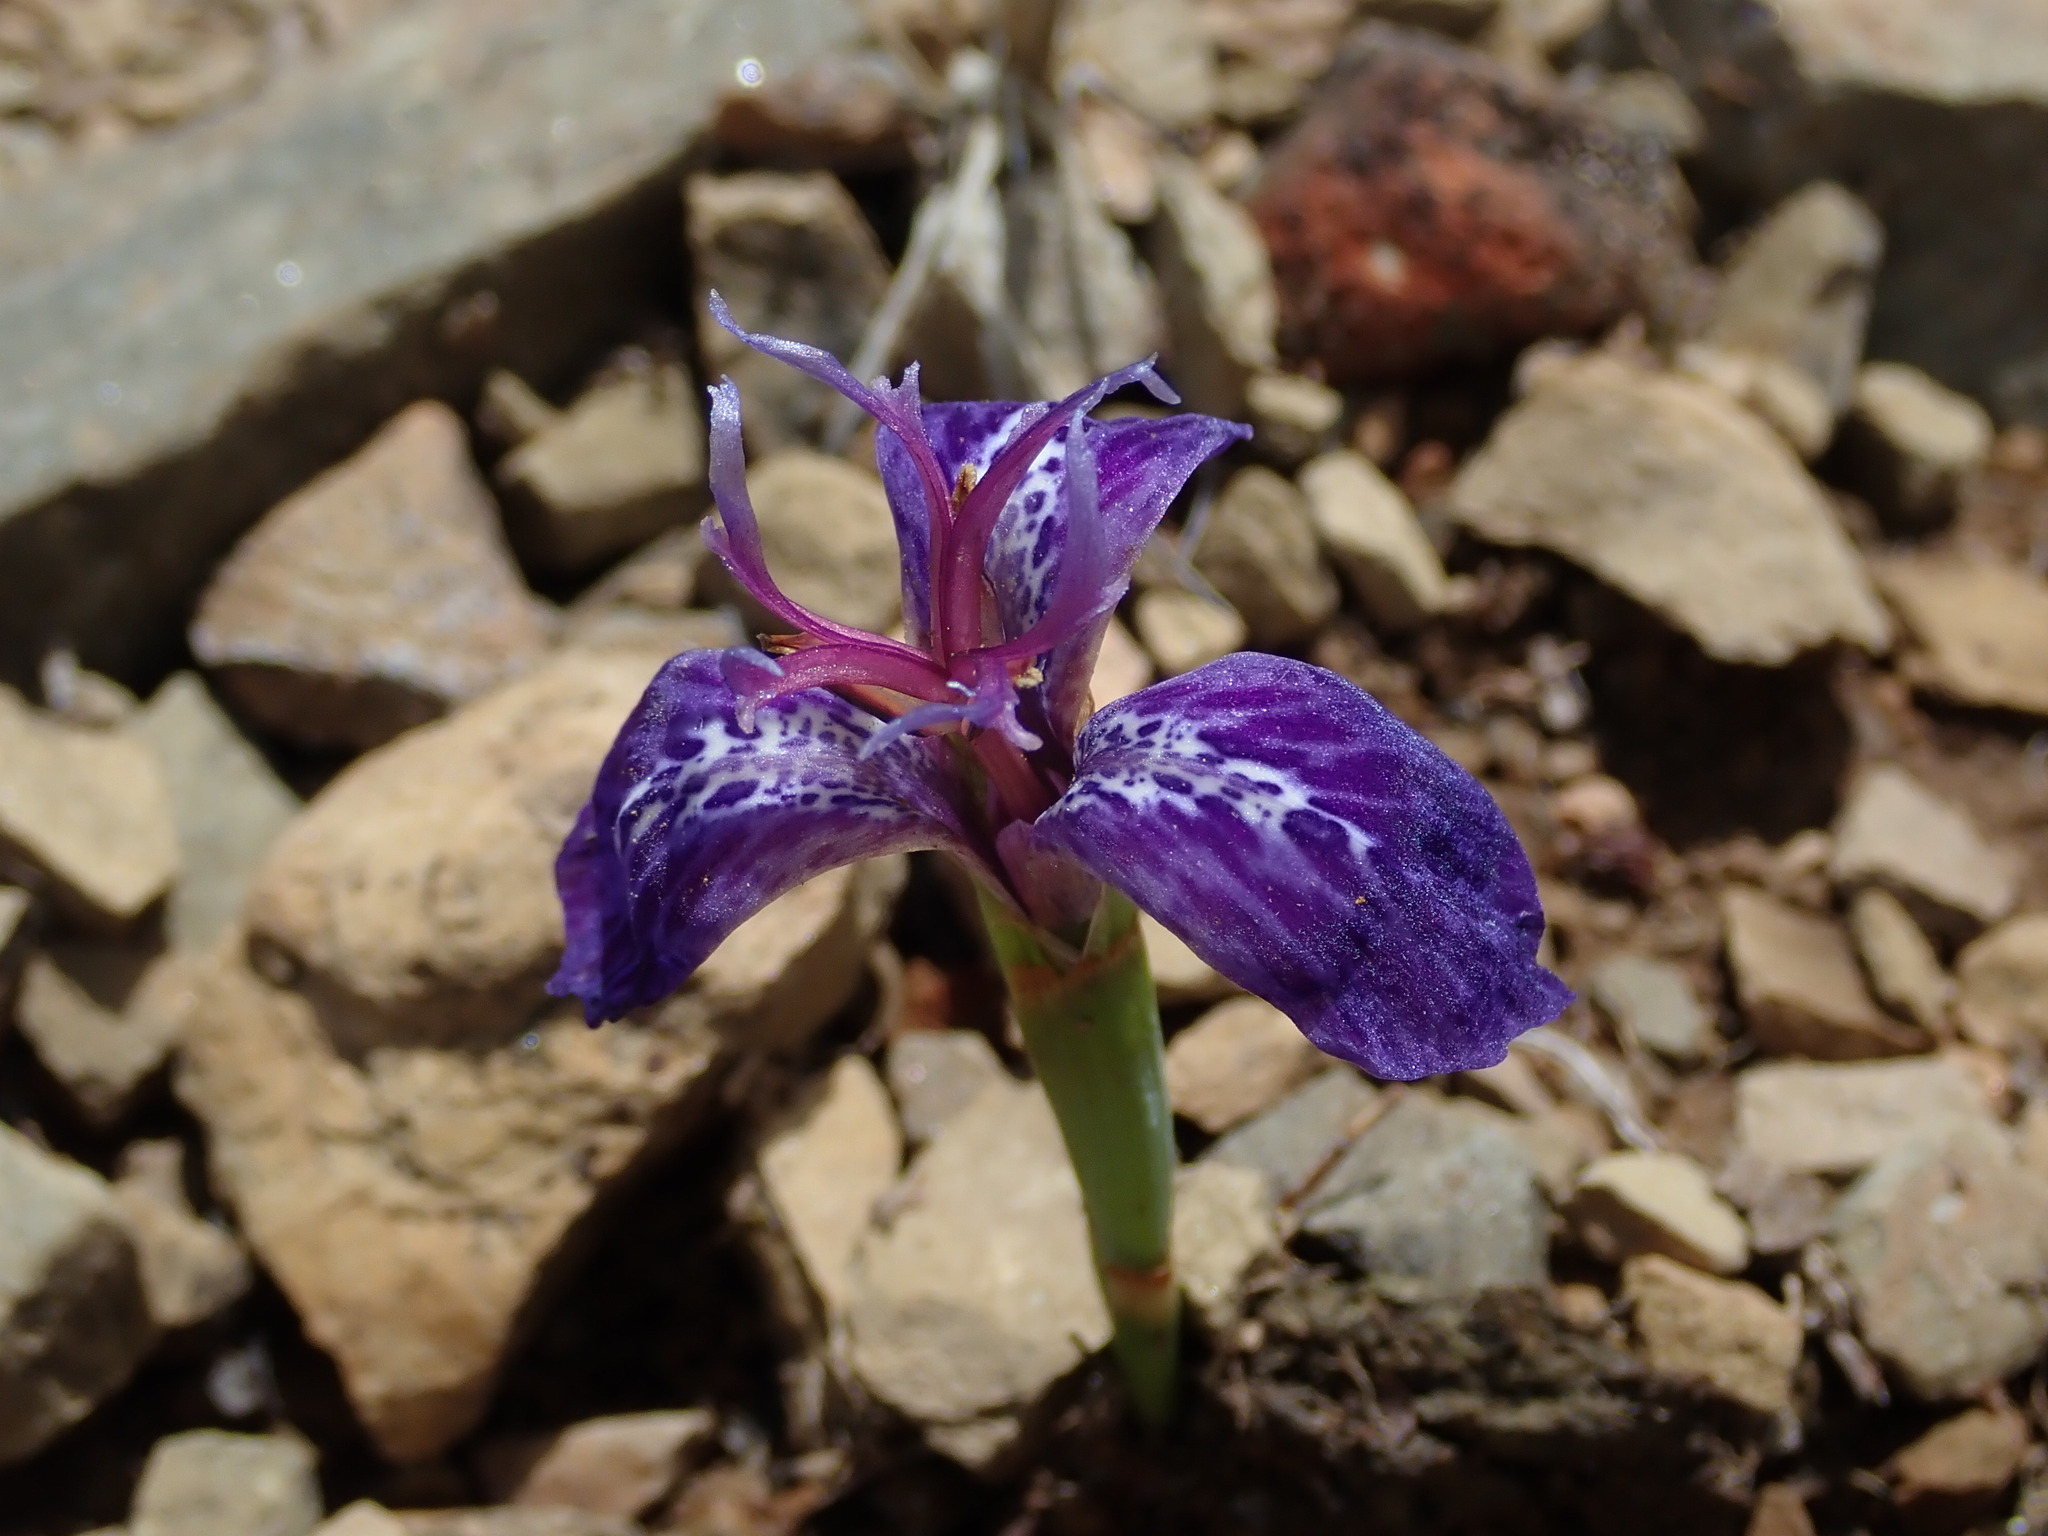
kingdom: Plantae
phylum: Tracheophyta
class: Liliopsida
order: Asparagales
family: Iridaceae
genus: Mastigostyla
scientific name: Mastigostyla cardenasii
